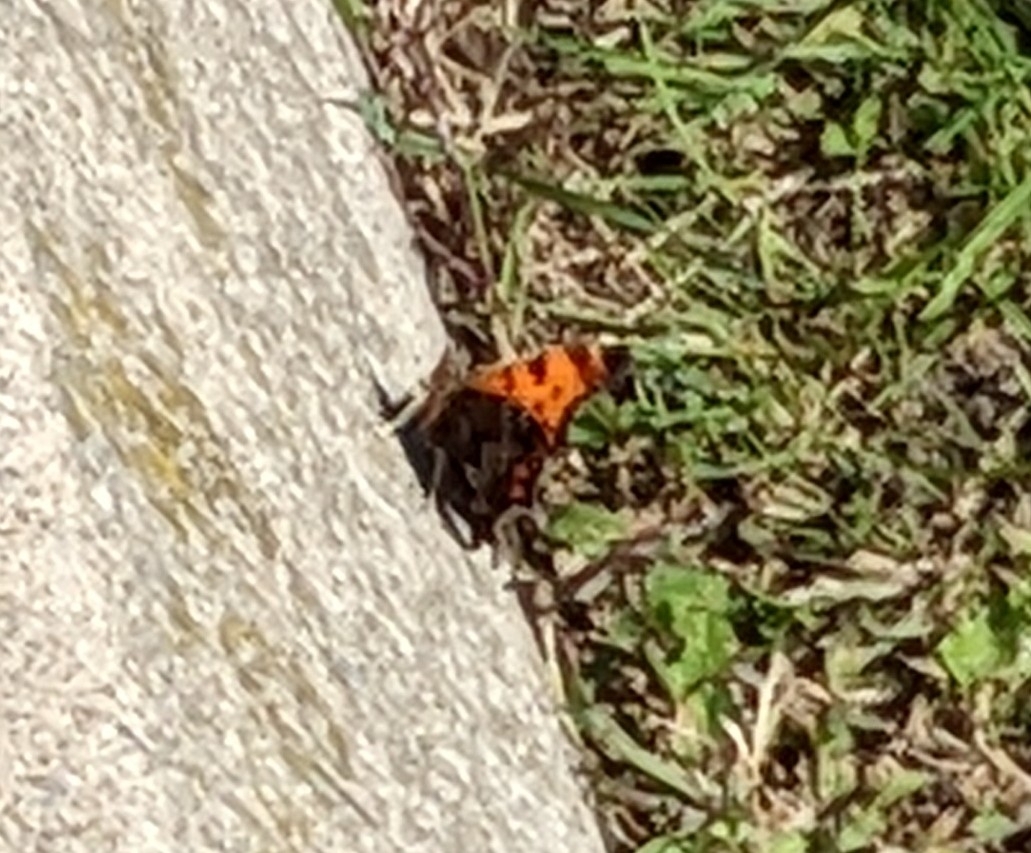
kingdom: Animalia
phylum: Arthropoda
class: Insecta
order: Lepidoptera
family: Nymphalidae
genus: Polygonia
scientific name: Polygonia comma
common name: Eastern comma
